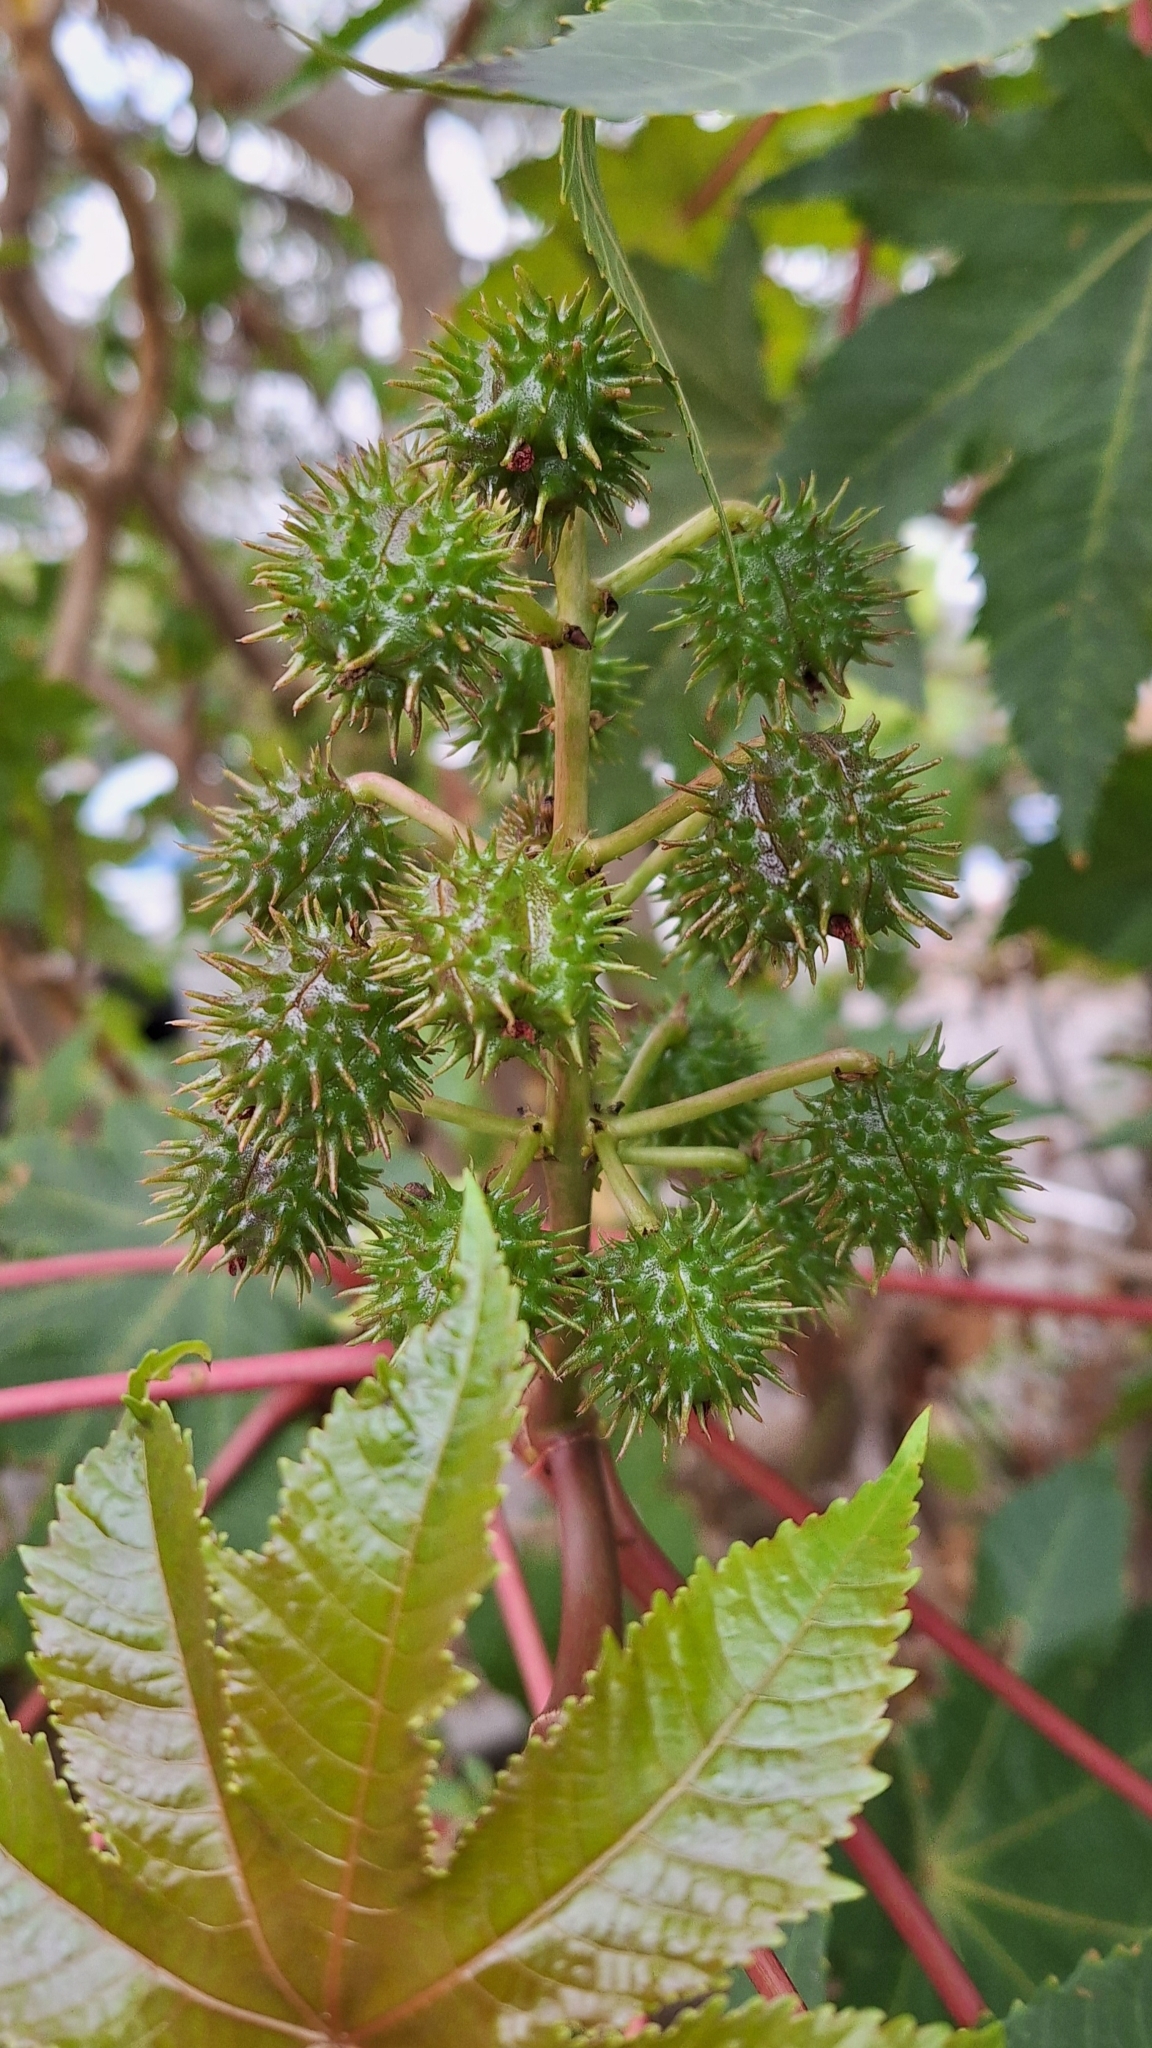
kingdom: Plantae
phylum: Tracheophyta
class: Magnoliopsida
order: Malpighiales
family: Euphorbiaceae
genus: Ricinus
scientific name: Ricinus communis
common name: Castor-oil-plant
